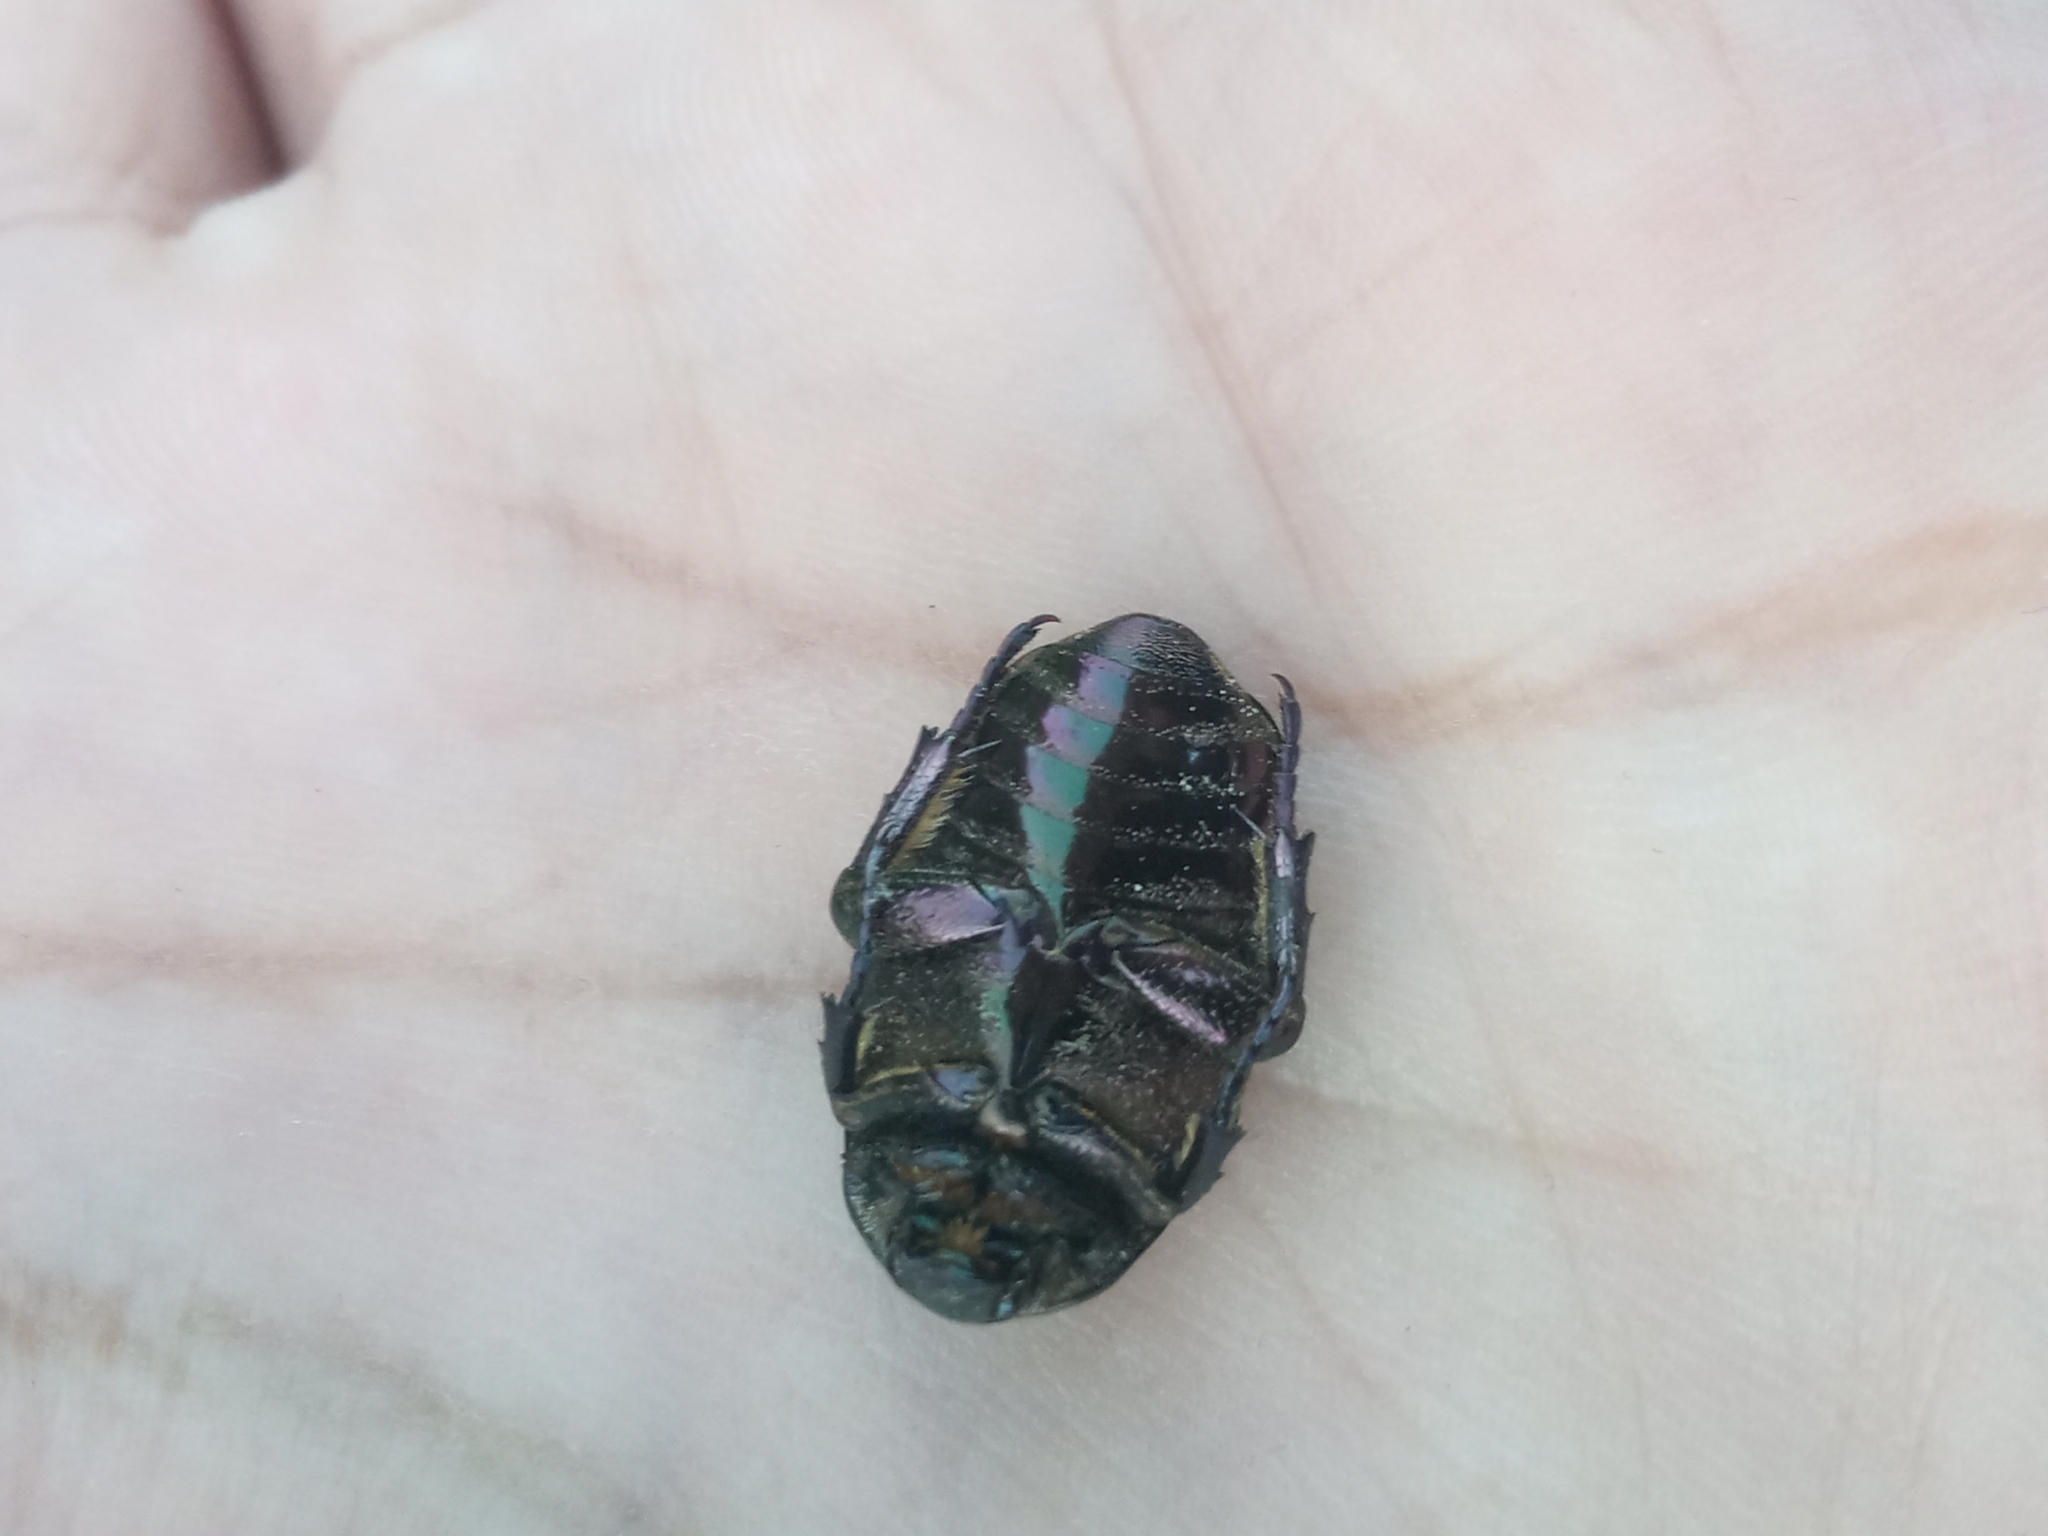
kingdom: Animalia
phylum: Arthropoda
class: Insecta
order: Coleoptera
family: Scarabaeidae
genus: Protaetia
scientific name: Protaetia cuprea
